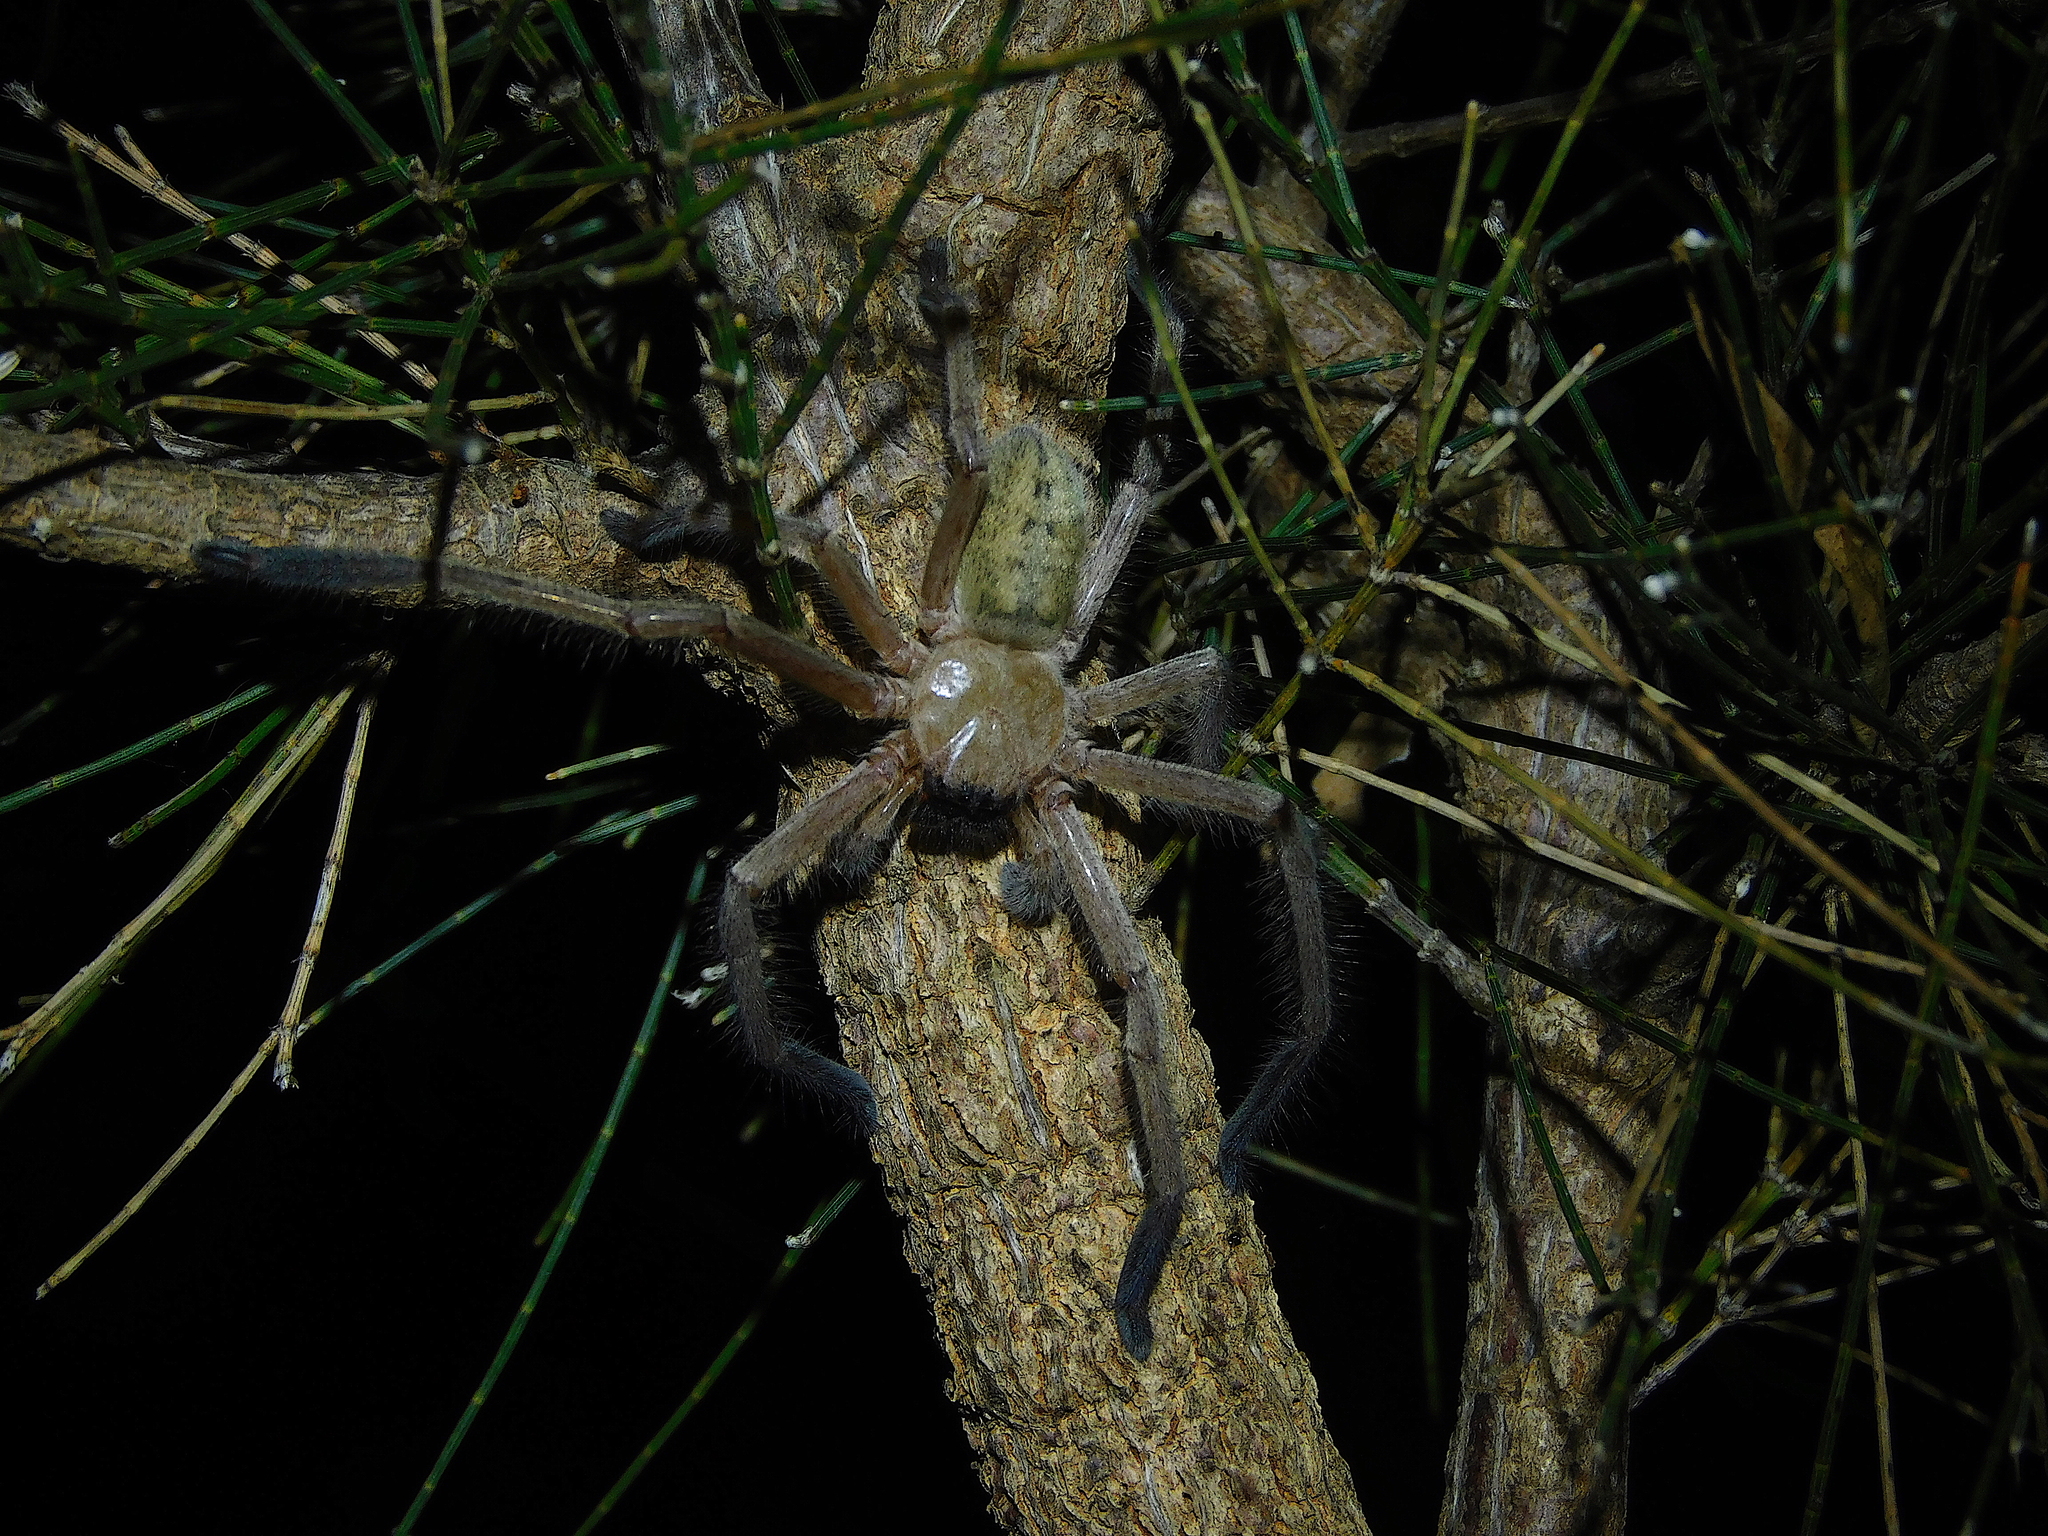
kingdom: Animalia
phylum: Arthropoda
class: Arachnida
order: Araneae
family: Sparassidae
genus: Delena
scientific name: Delena cancerides
